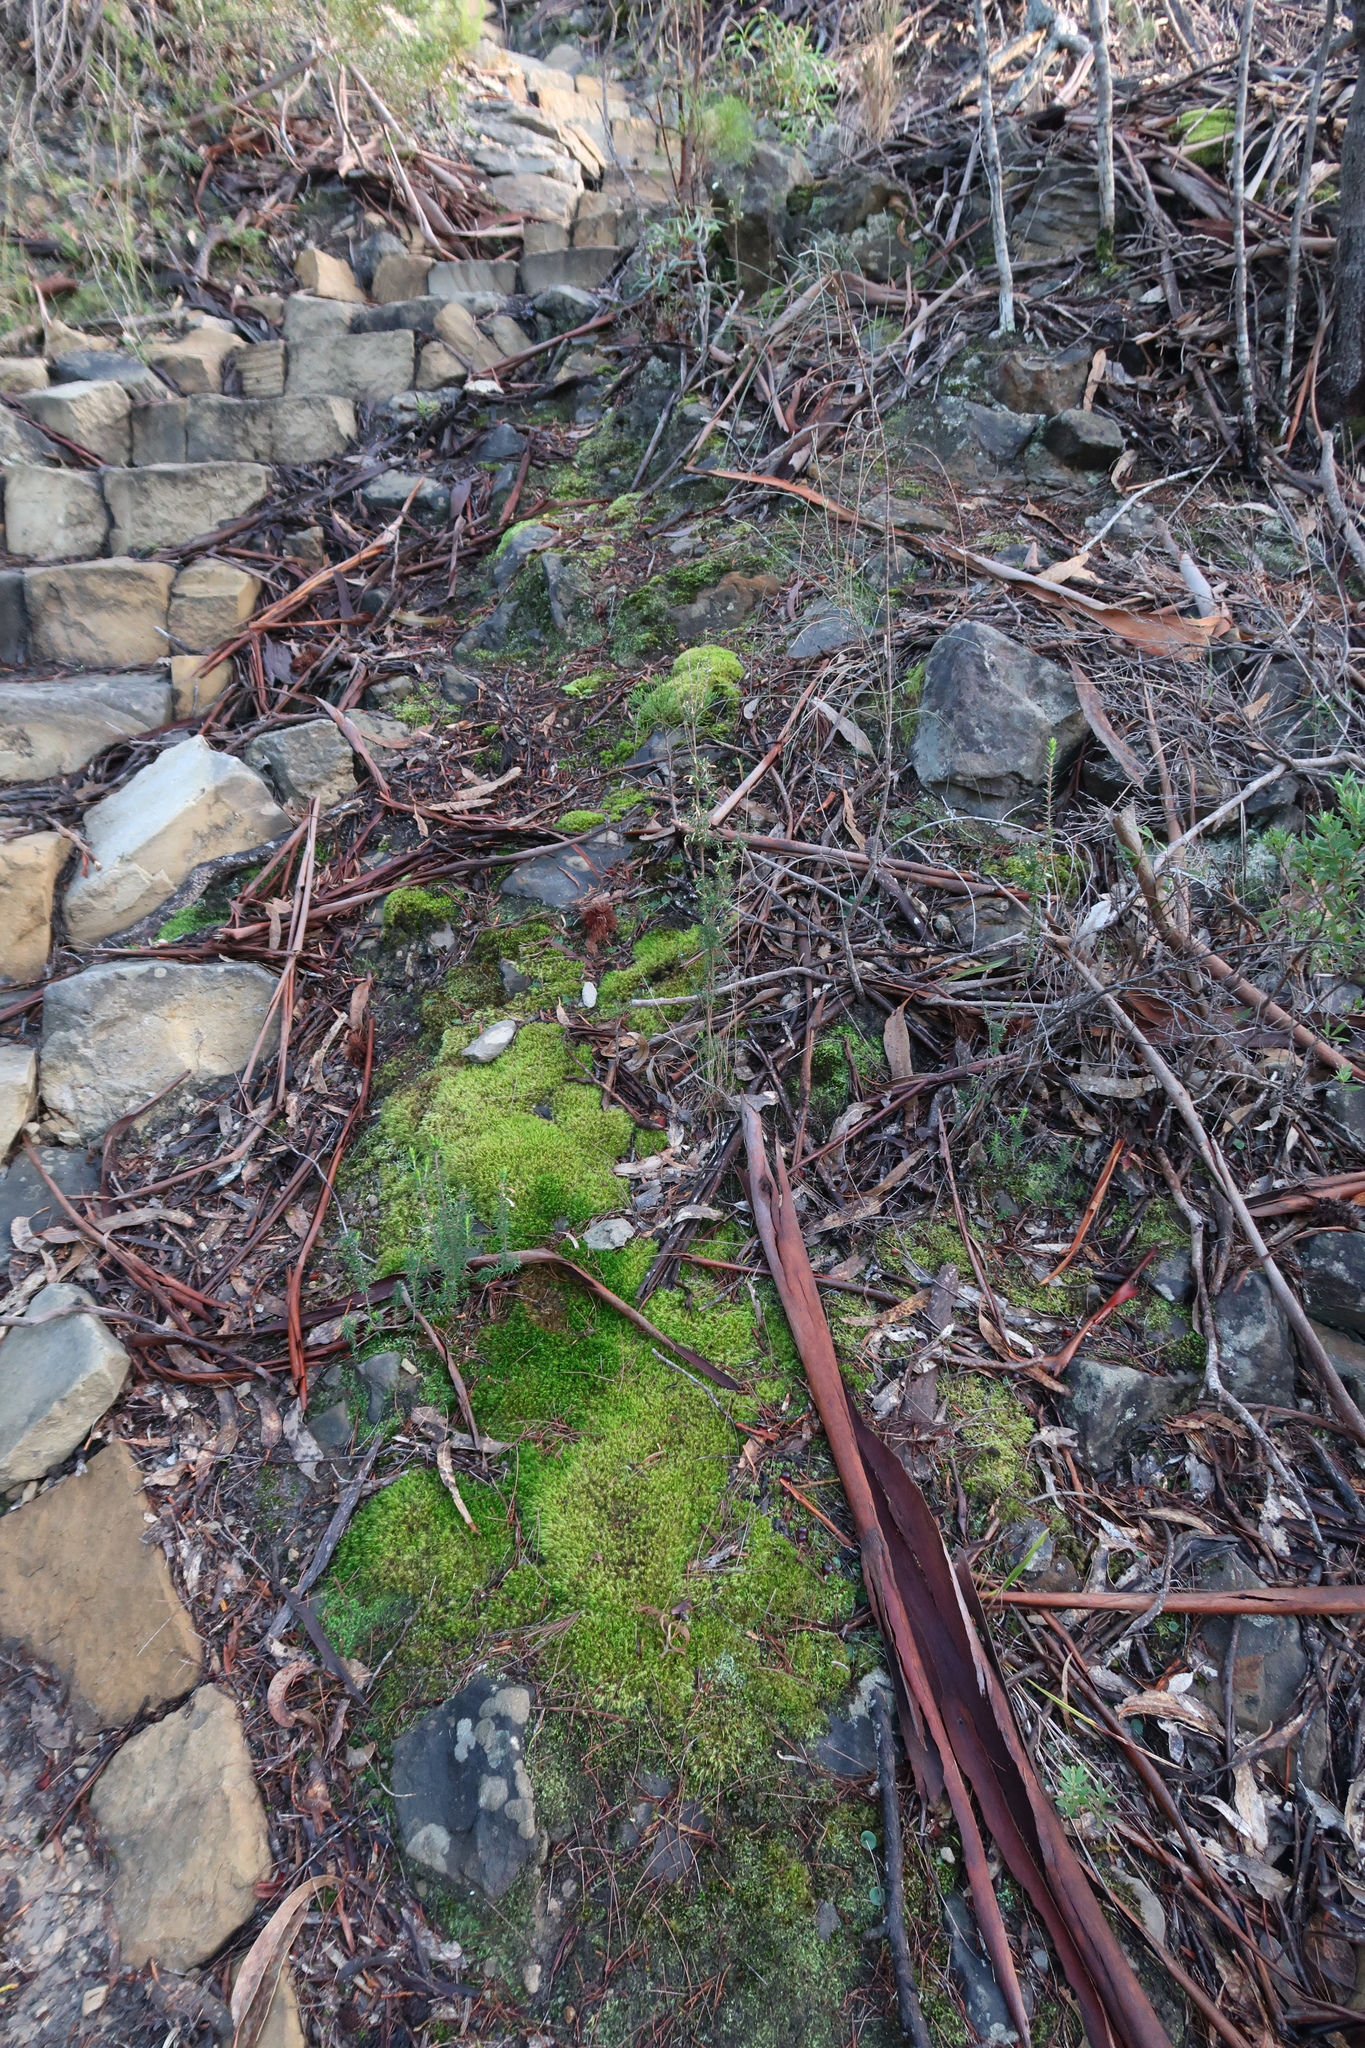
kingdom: Plantae
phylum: Tracheophyta
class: Liliopsida
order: Asparagales
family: Orchidaceae
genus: Corybas
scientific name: Corybas diemenicus
